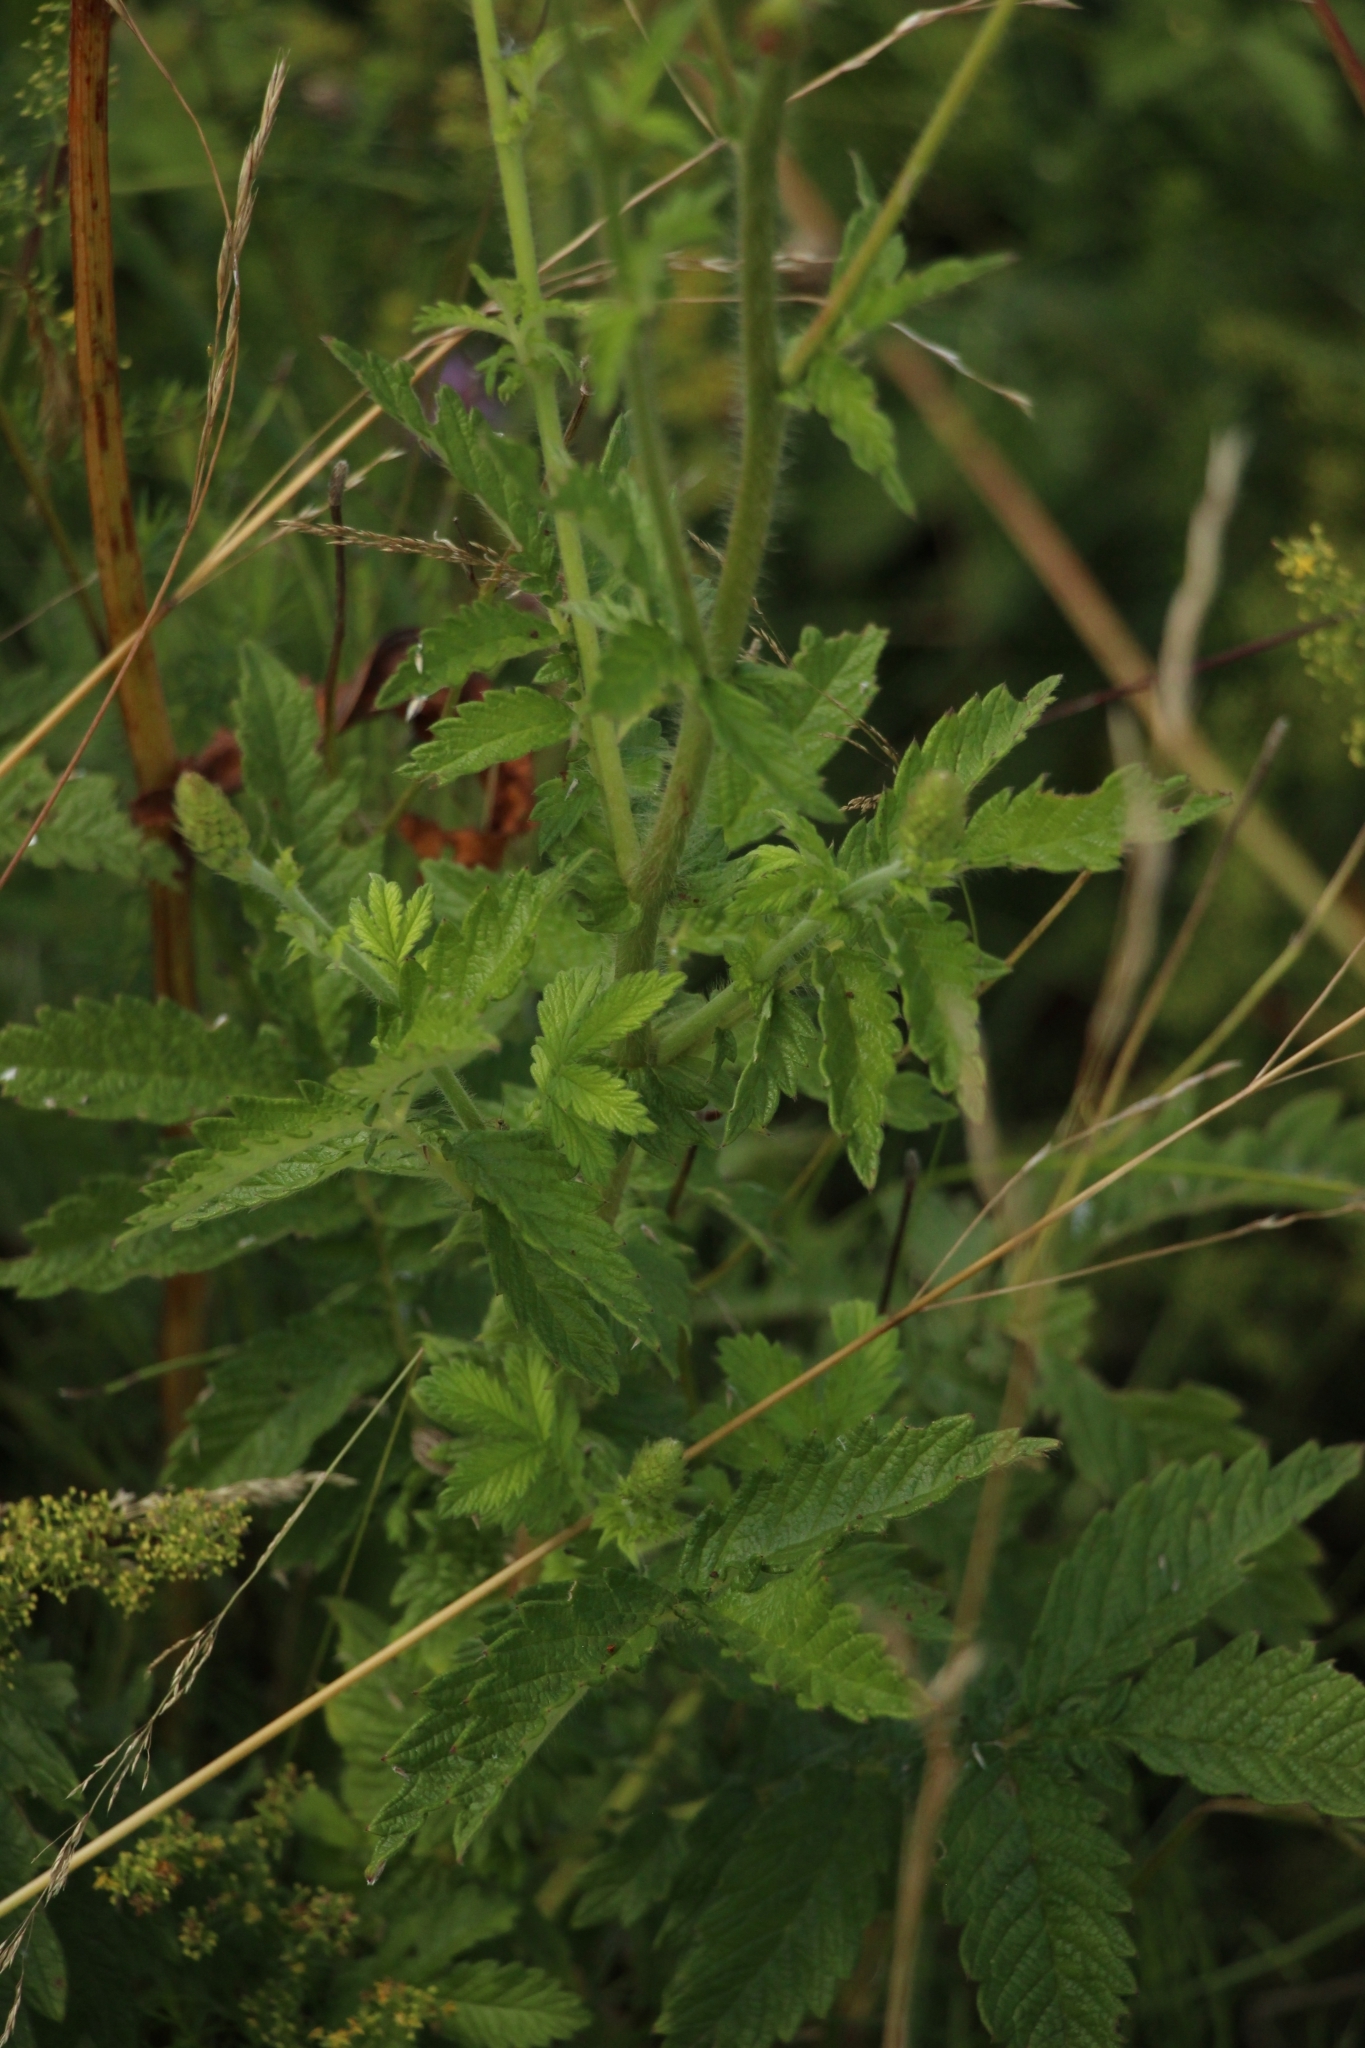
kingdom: Plantae
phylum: Tracheophyta
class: Magnoliopsida
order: Rosales
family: Rosaceae
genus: Agrimonia
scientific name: Agrimonia eupatoria
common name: Agrimony
